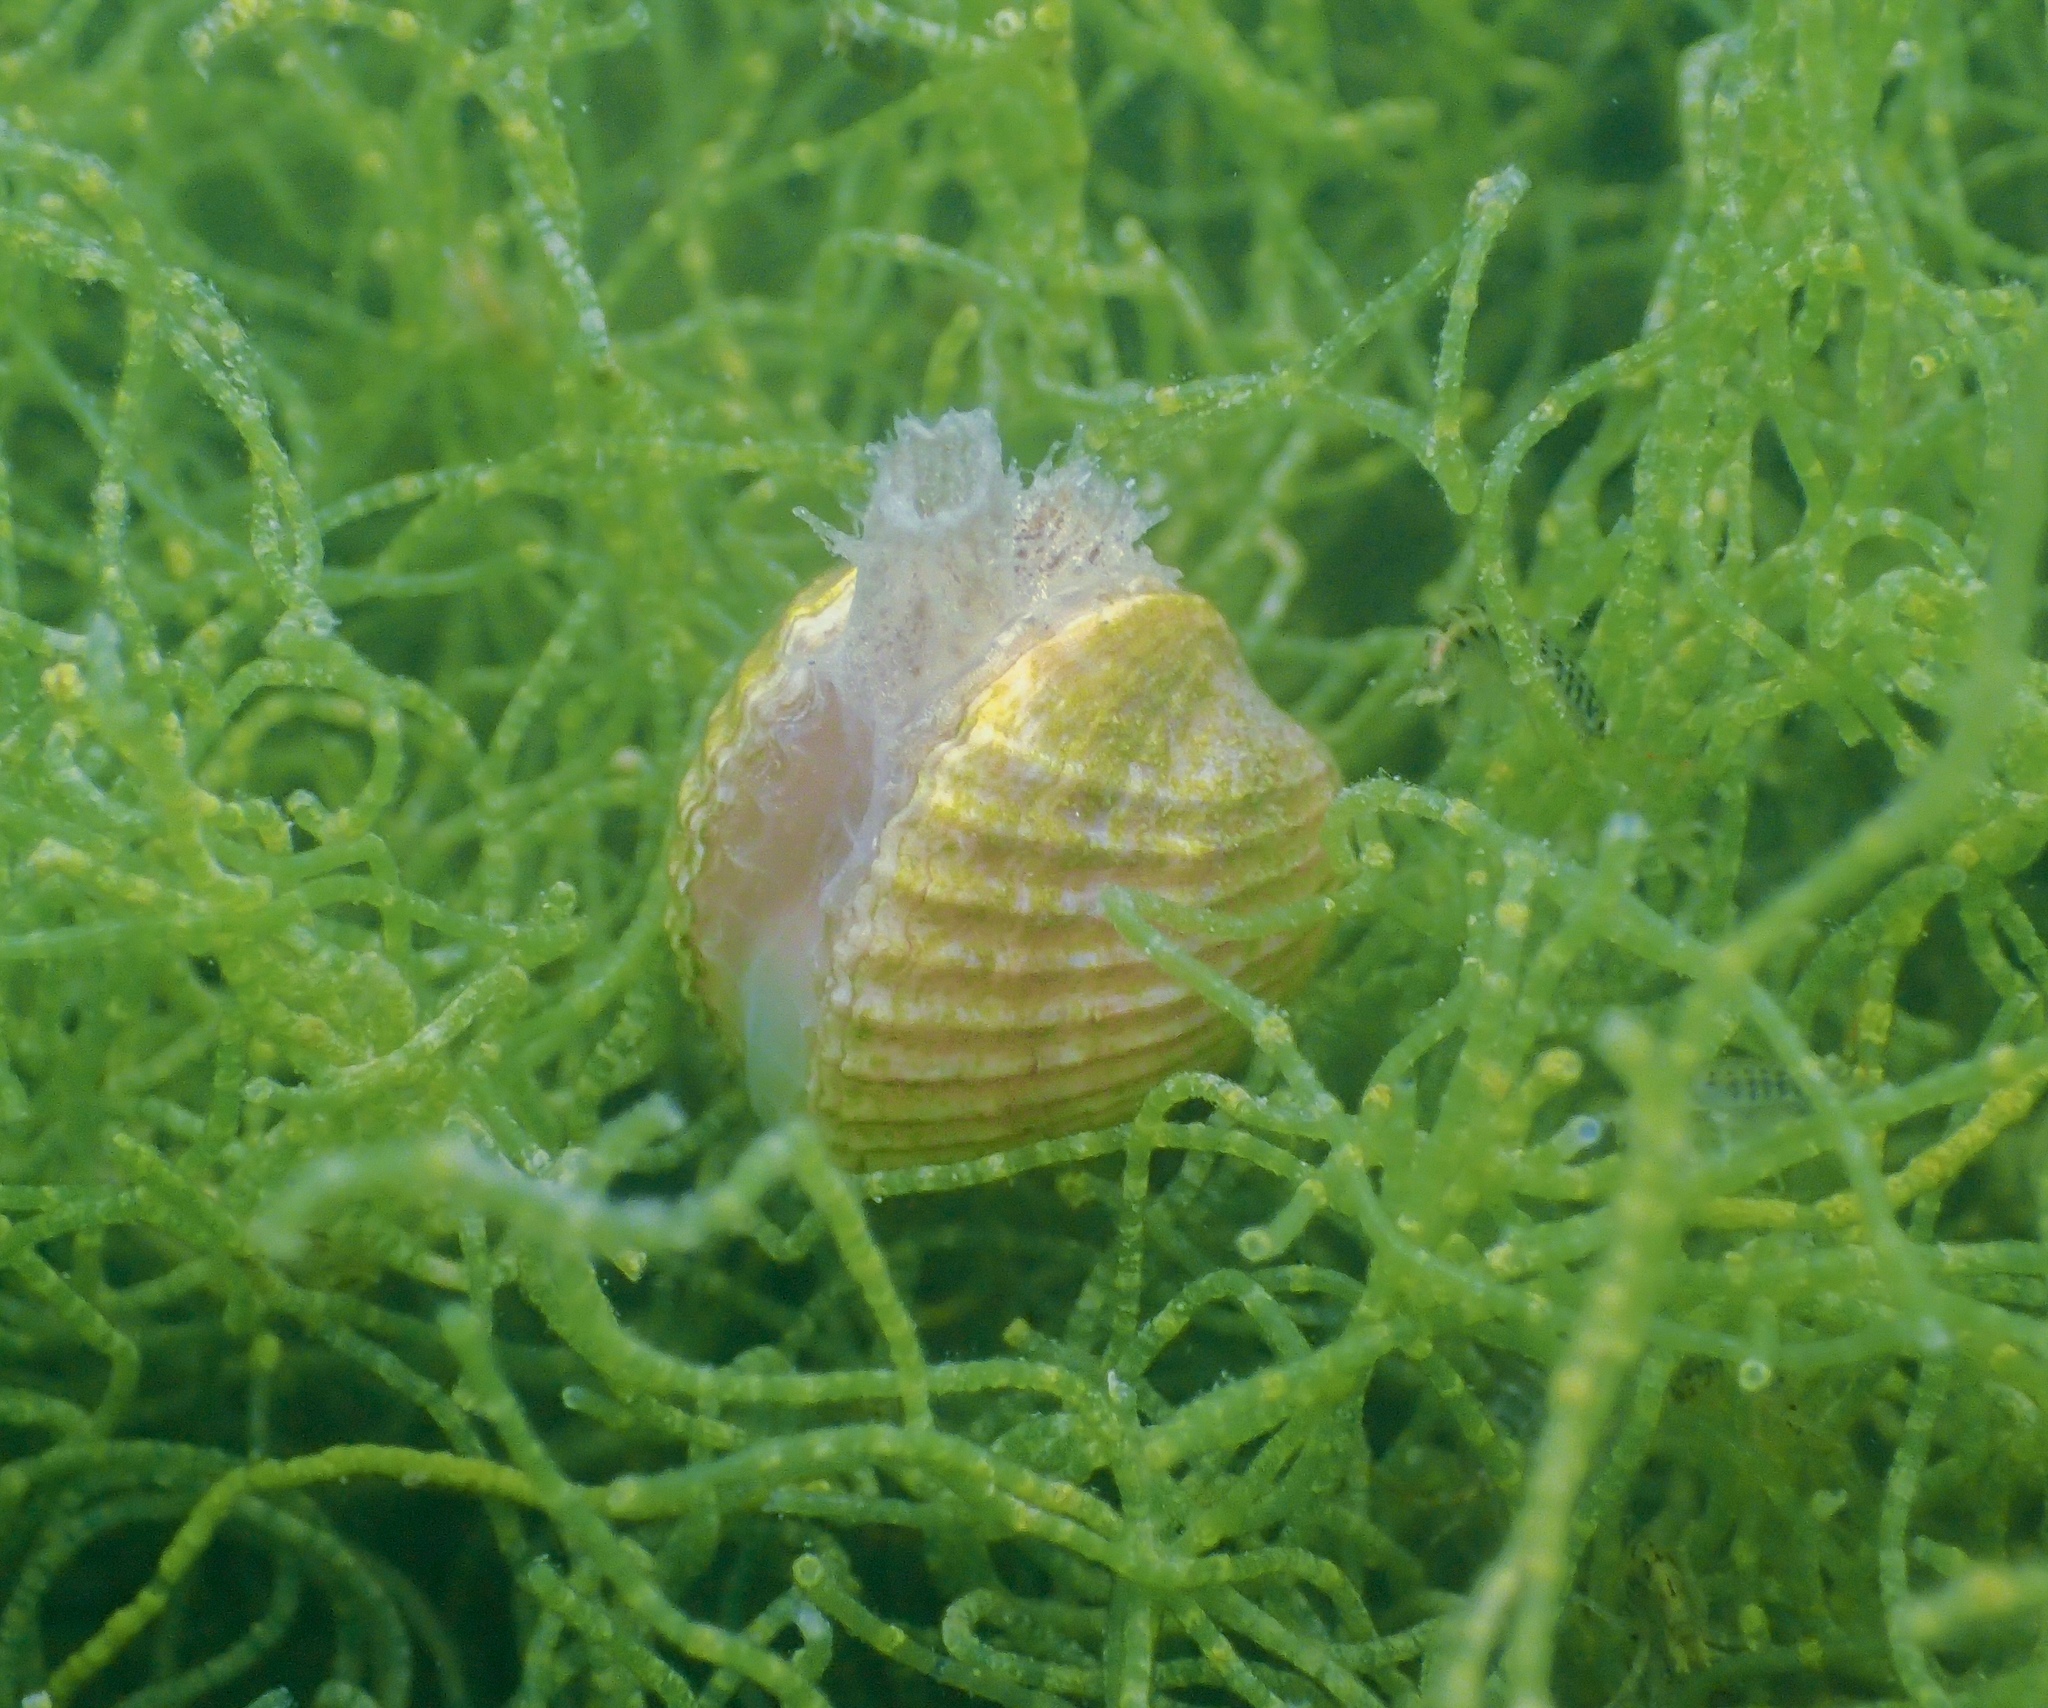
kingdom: Animalia
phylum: Mollusca
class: Bivalvia
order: Cardiida
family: Cardiidae
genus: Cerastoderma
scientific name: Cerastoderma edule
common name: Common cockle
